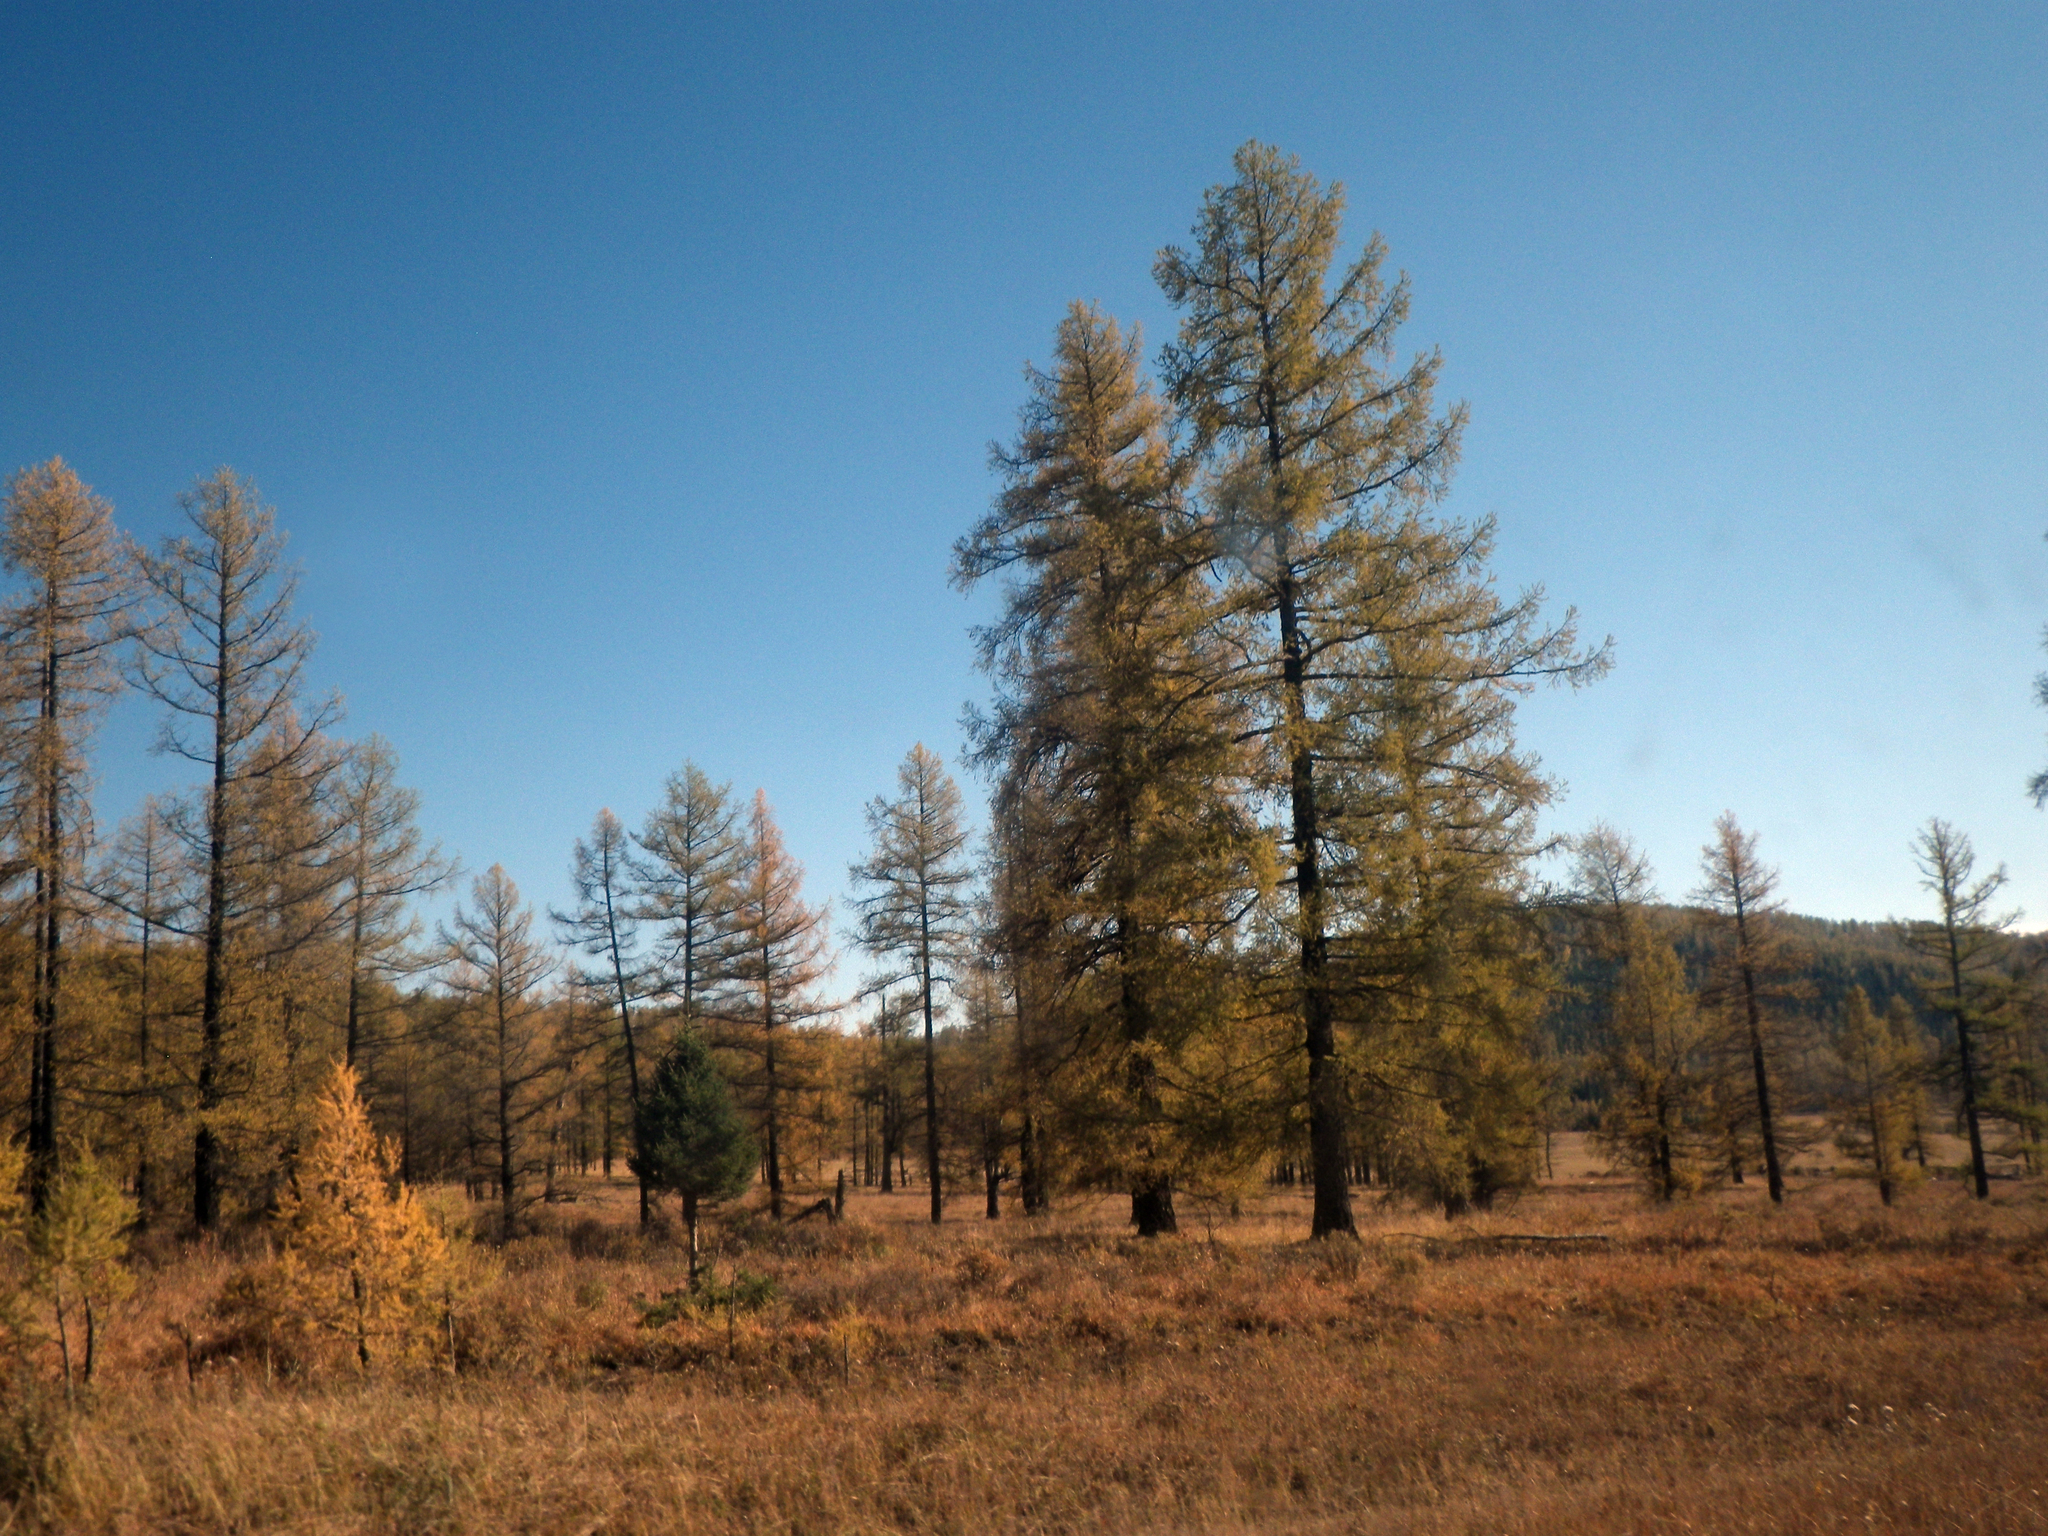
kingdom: Plantae
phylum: Tracheophyta
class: Pinopsida
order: Pinales
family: Pinaceae
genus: Larix
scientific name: Larix sibirica
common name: Siberian larch
